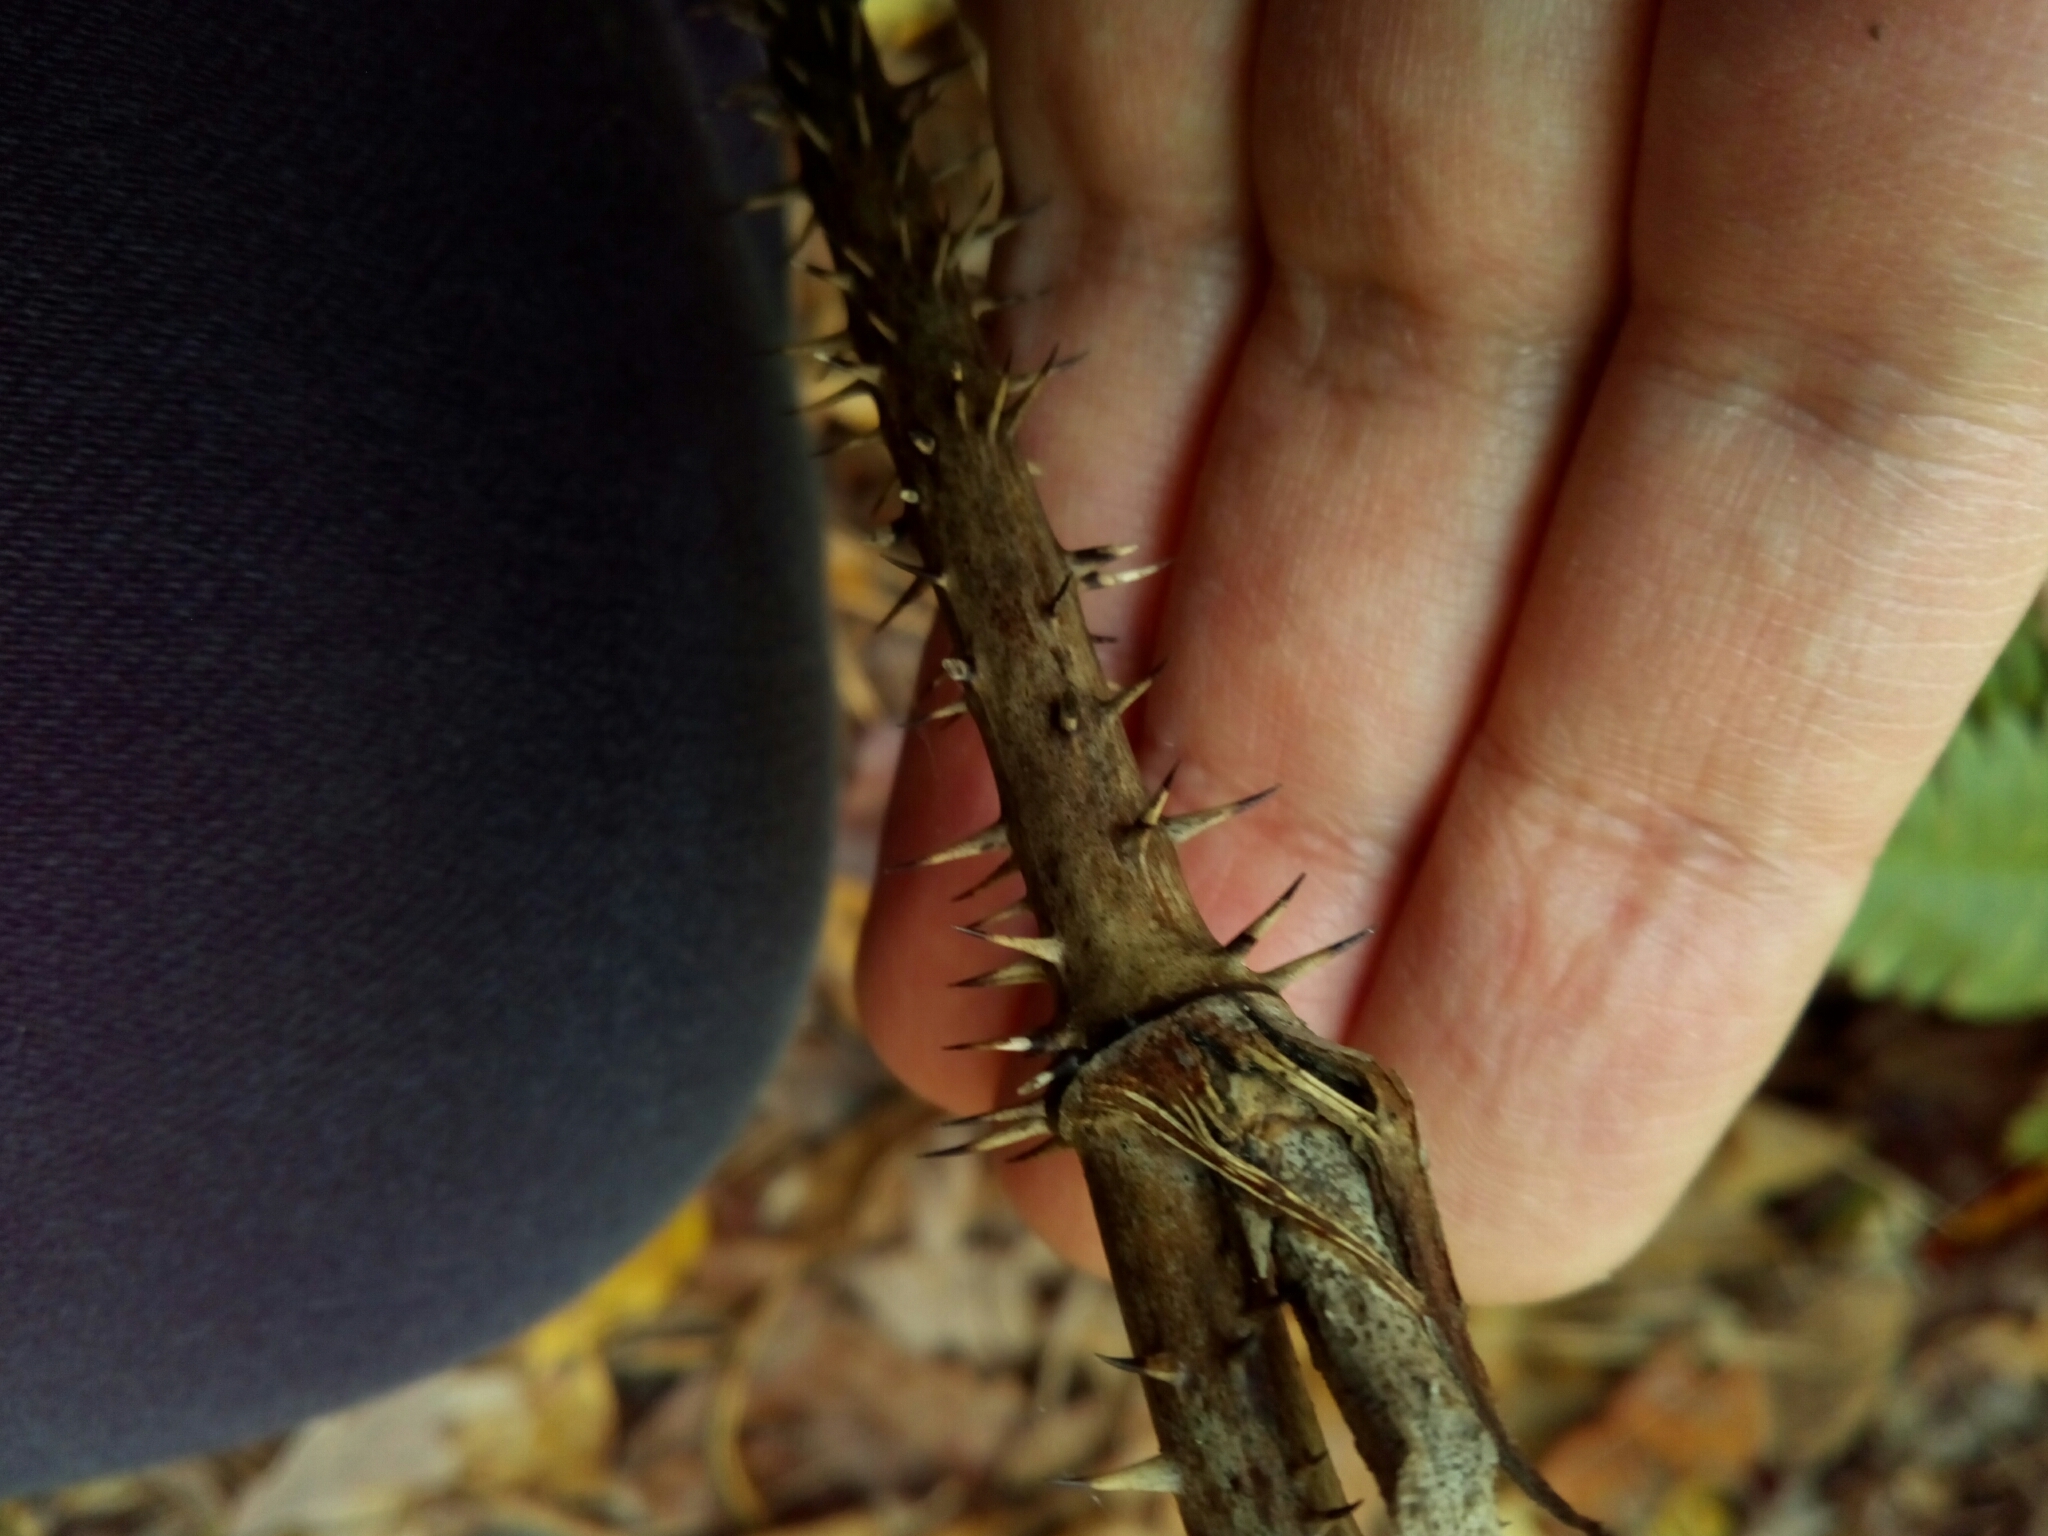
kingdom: Plantae
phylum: Tracheophyta
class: Magnoliopsida
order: Apiales
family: Araliaceae
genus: Aralia
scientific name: Aralia spinosa
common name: Hercules'-club
